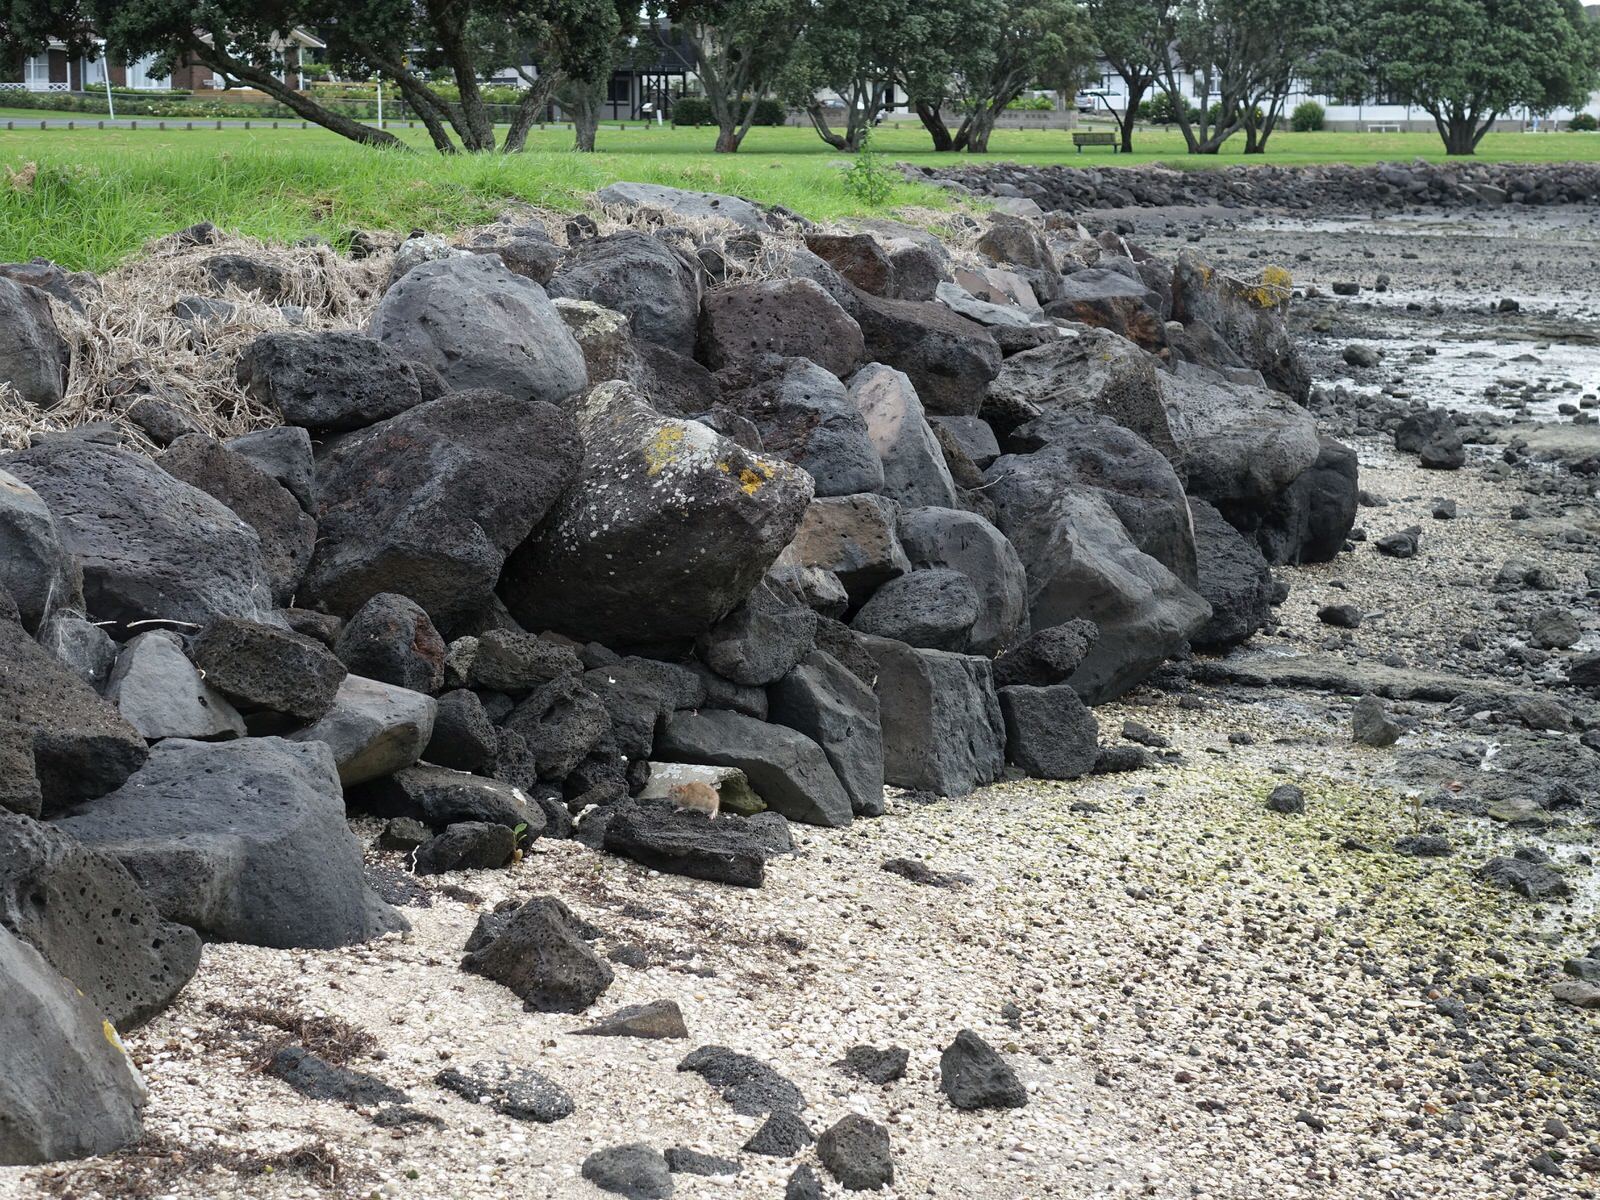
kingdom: Animalia
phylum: Chordata
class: Mammalia
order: Rodentia
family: Muridae
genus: Rattus
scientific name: Rattus norvegicus
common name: Brown rat
